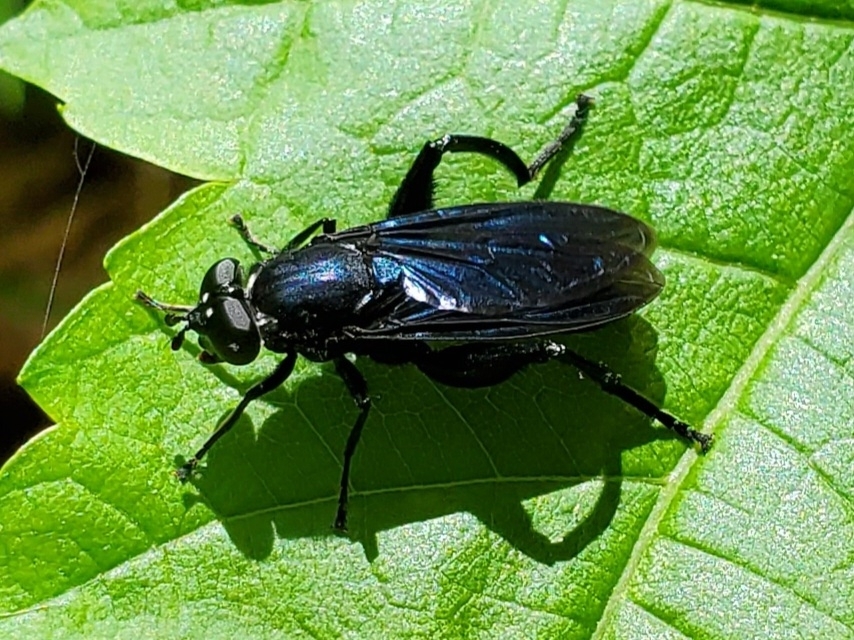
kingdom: Animalia
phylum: Arthropoda
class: Insecta
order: Diptera
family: Syrphidae
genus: Chalcosyrphus
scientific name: Chalcosyrphus chalybeus
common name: Violet leafwalker
